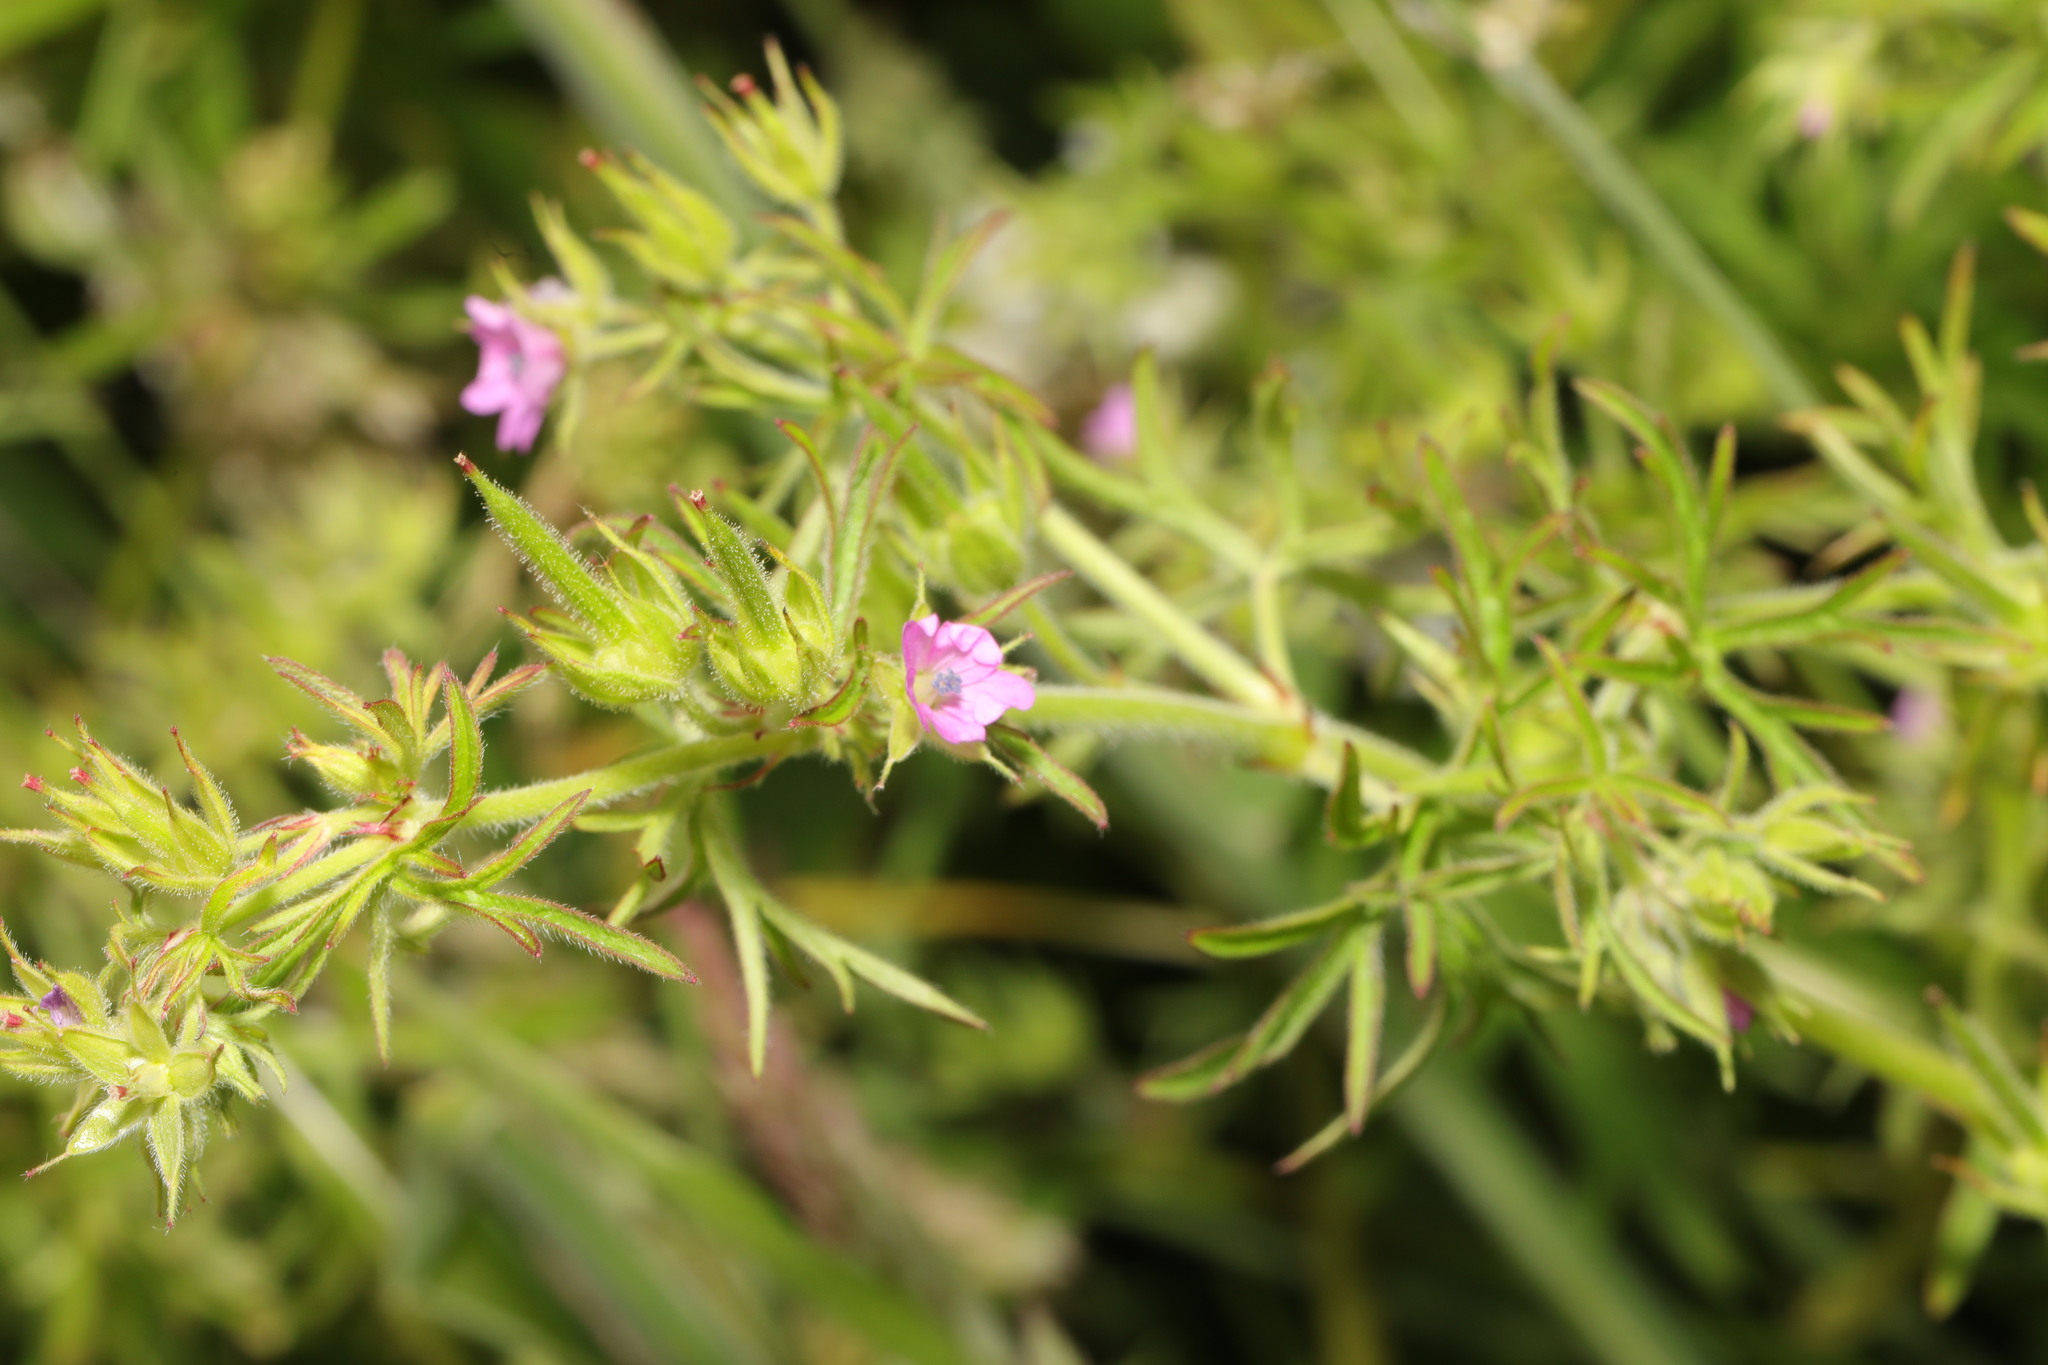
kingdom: Plantae
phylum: Tracheophyta
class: Magnoliopsida
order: Geraniales
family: Geraniaceae
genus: Geranium
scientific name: Geranium dissectum
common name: Cut-leaved crane's-bill
